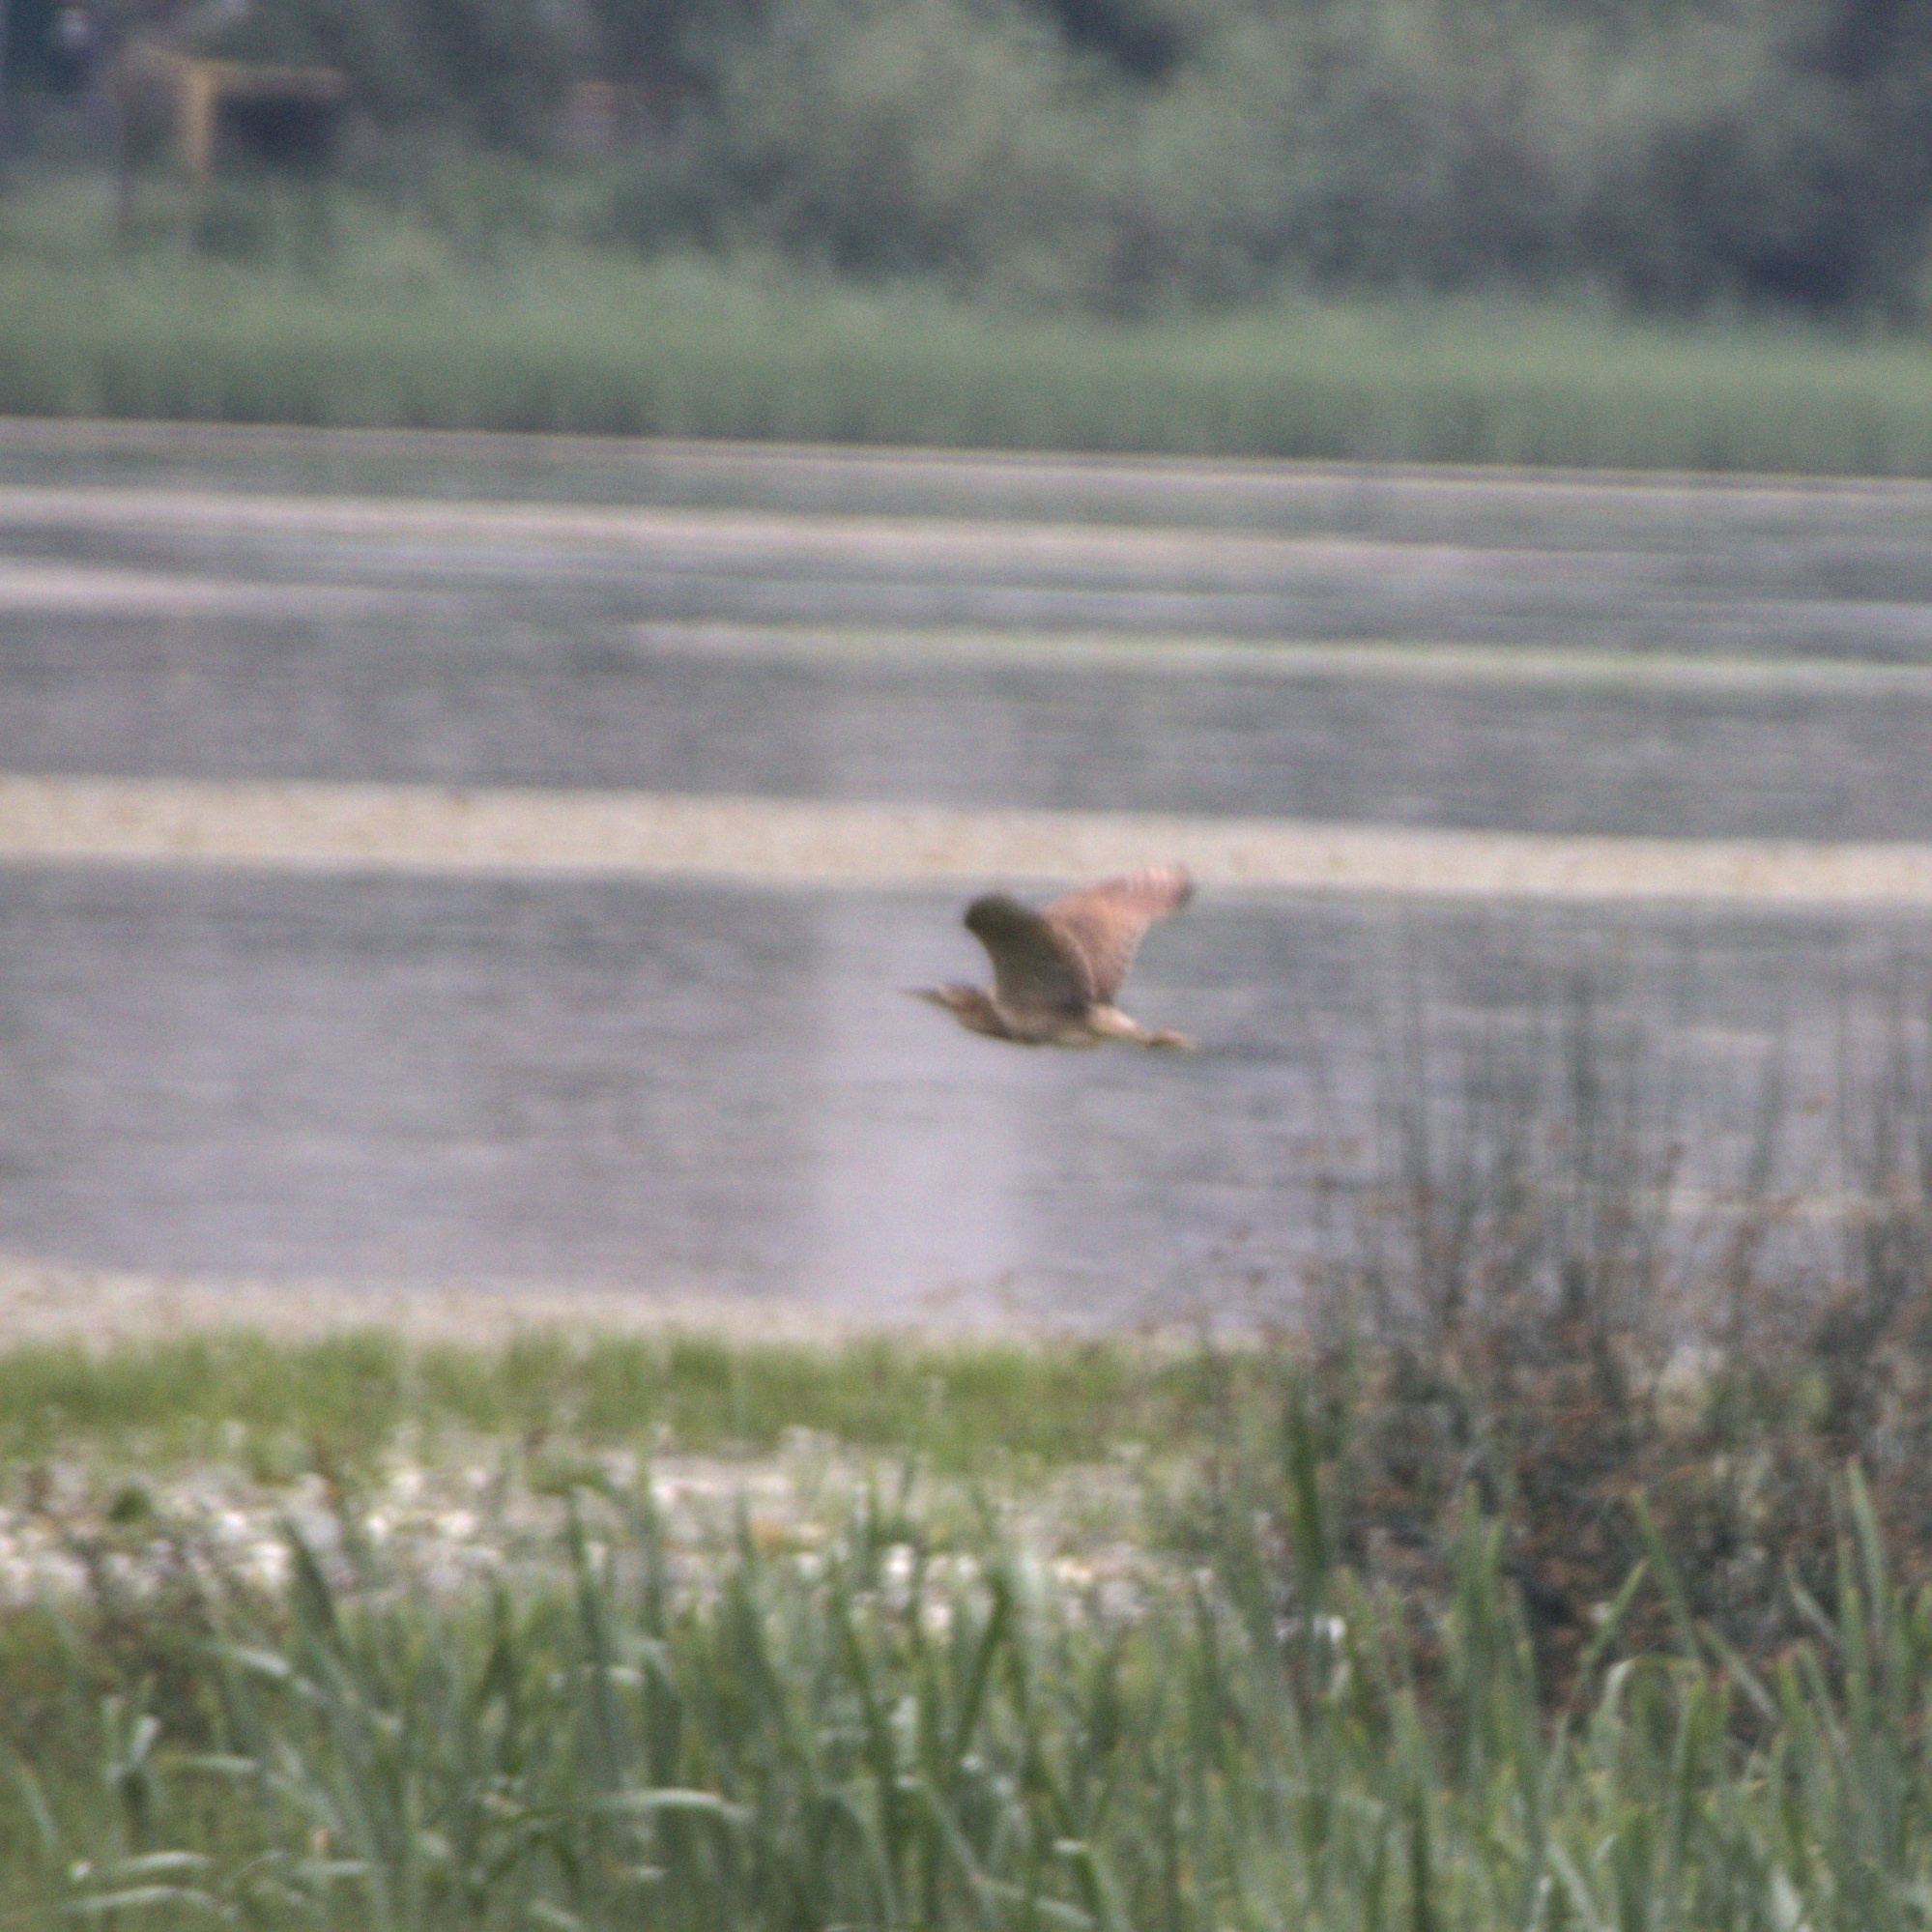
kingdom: Animalia
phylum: Chordata
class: Aves
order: Pelecaniformes
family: Ardeidae
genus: Botaurus
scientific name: Botaurus stellaris
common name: Eurasian bittern
